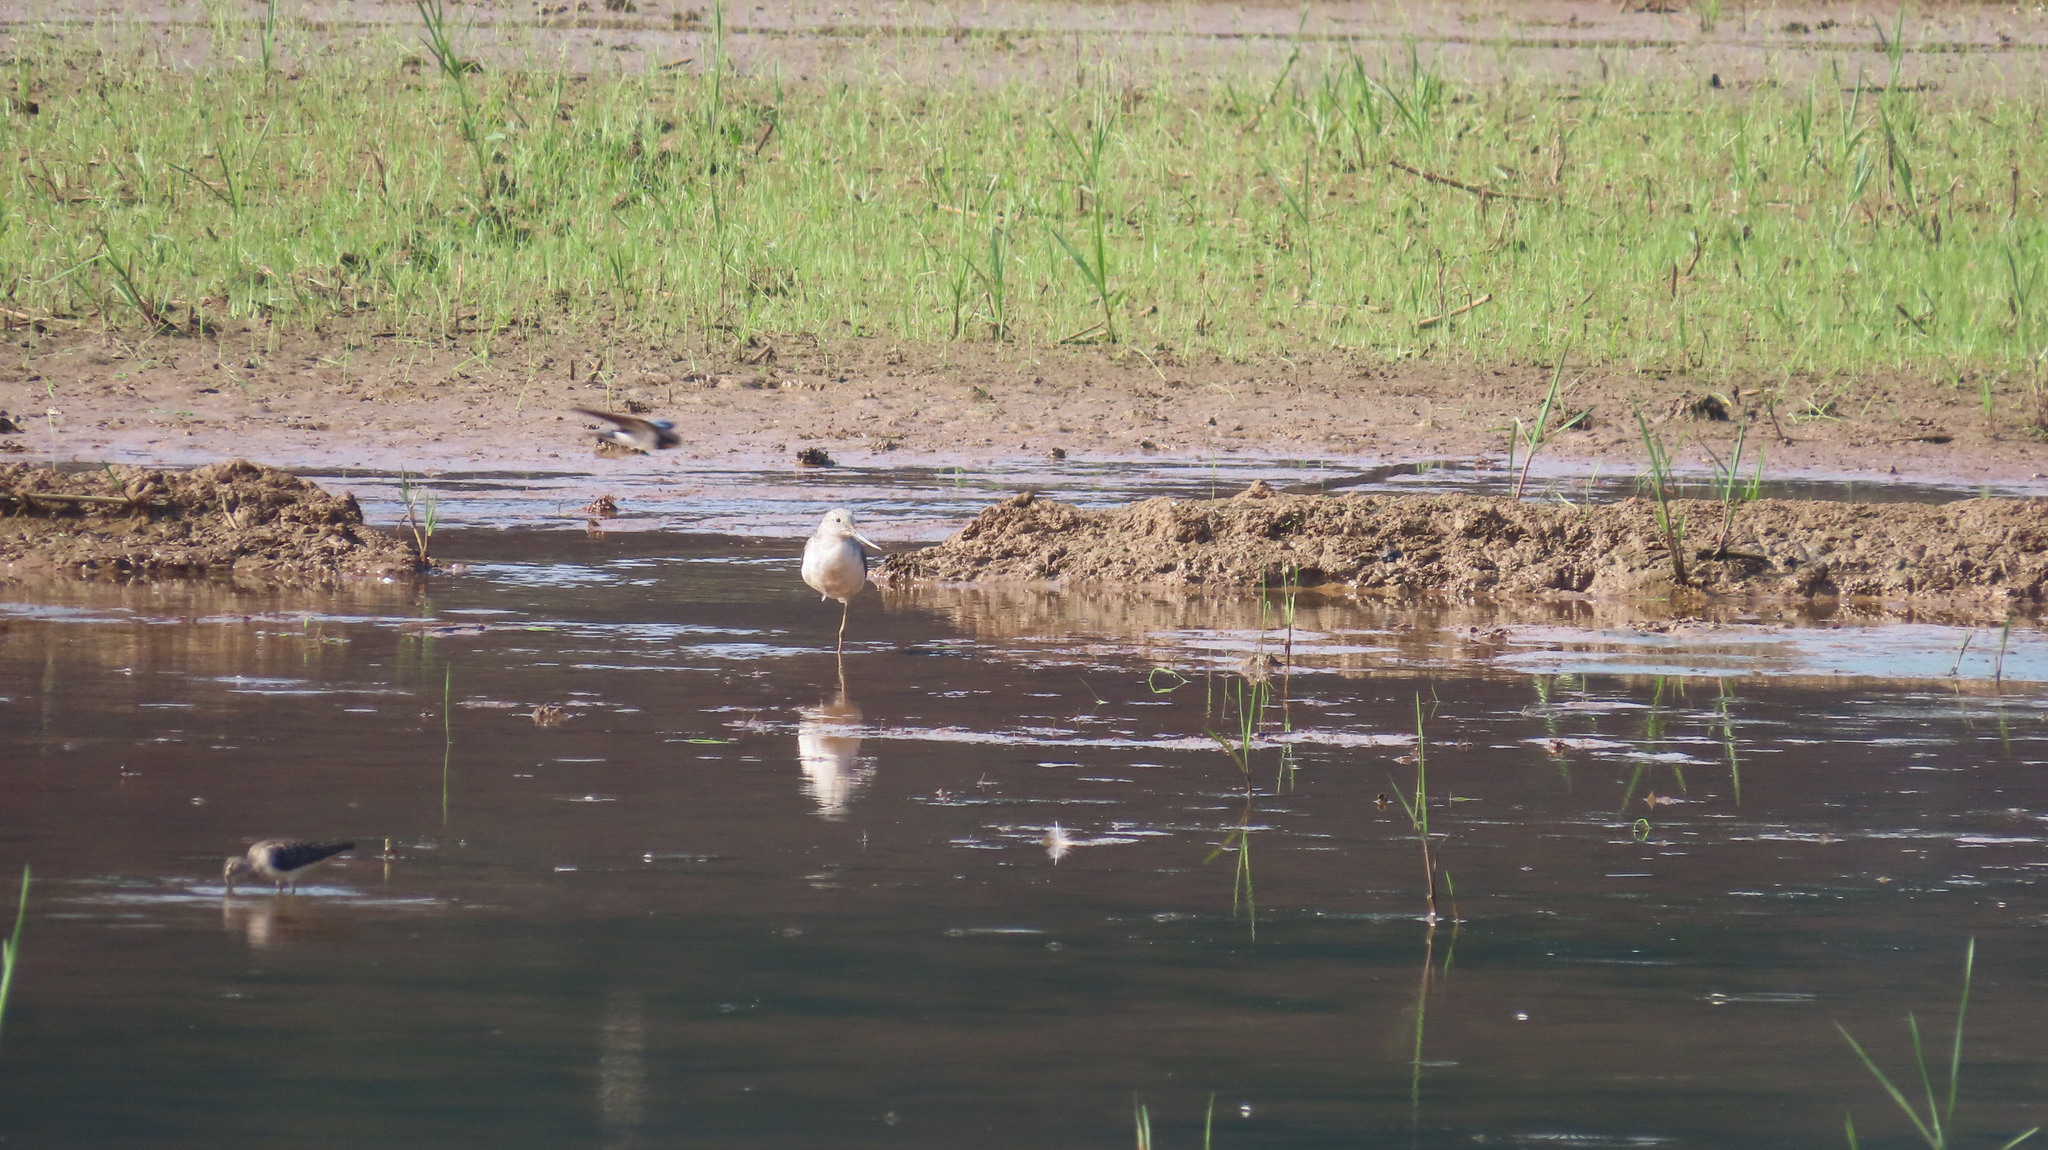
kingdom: Animalia
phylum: Chordata
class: Aves
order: Charadriiformes
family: Scolopacidae
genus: Tringa
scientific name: Tringa nebularia
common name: Common greenshank
